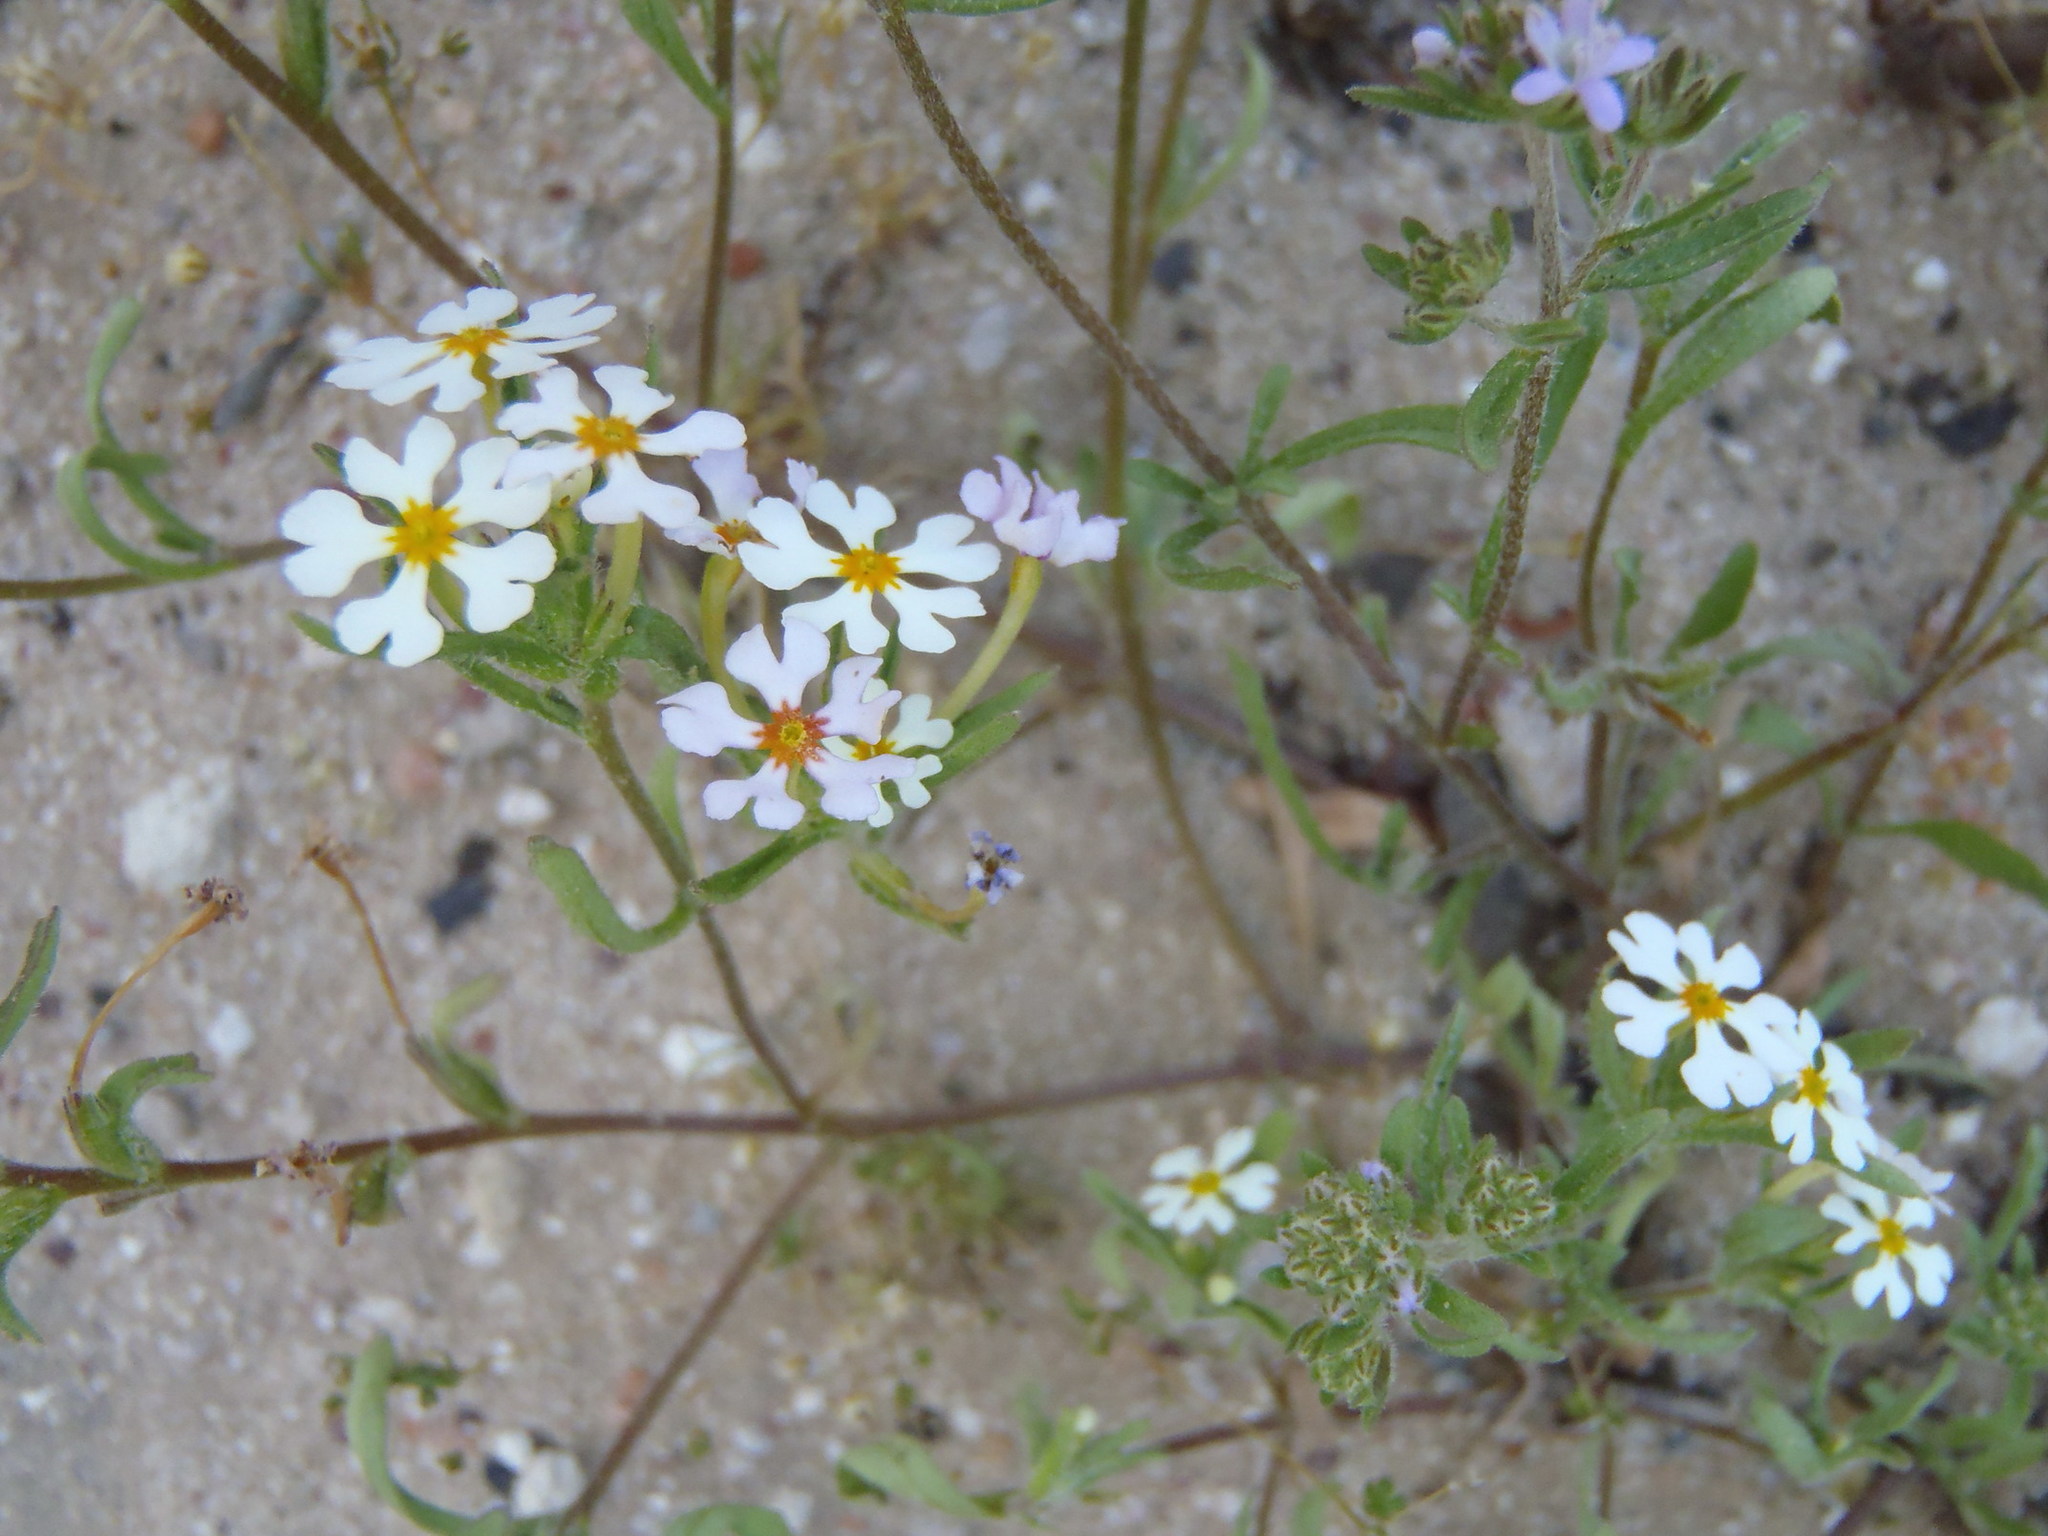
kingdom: Plantae
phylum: Tracheophyta
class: Magnoliopsida
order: Lamiales
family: Scrophulariaceae
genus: Zaluzianskya
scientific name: Zaluzianskya villosa
